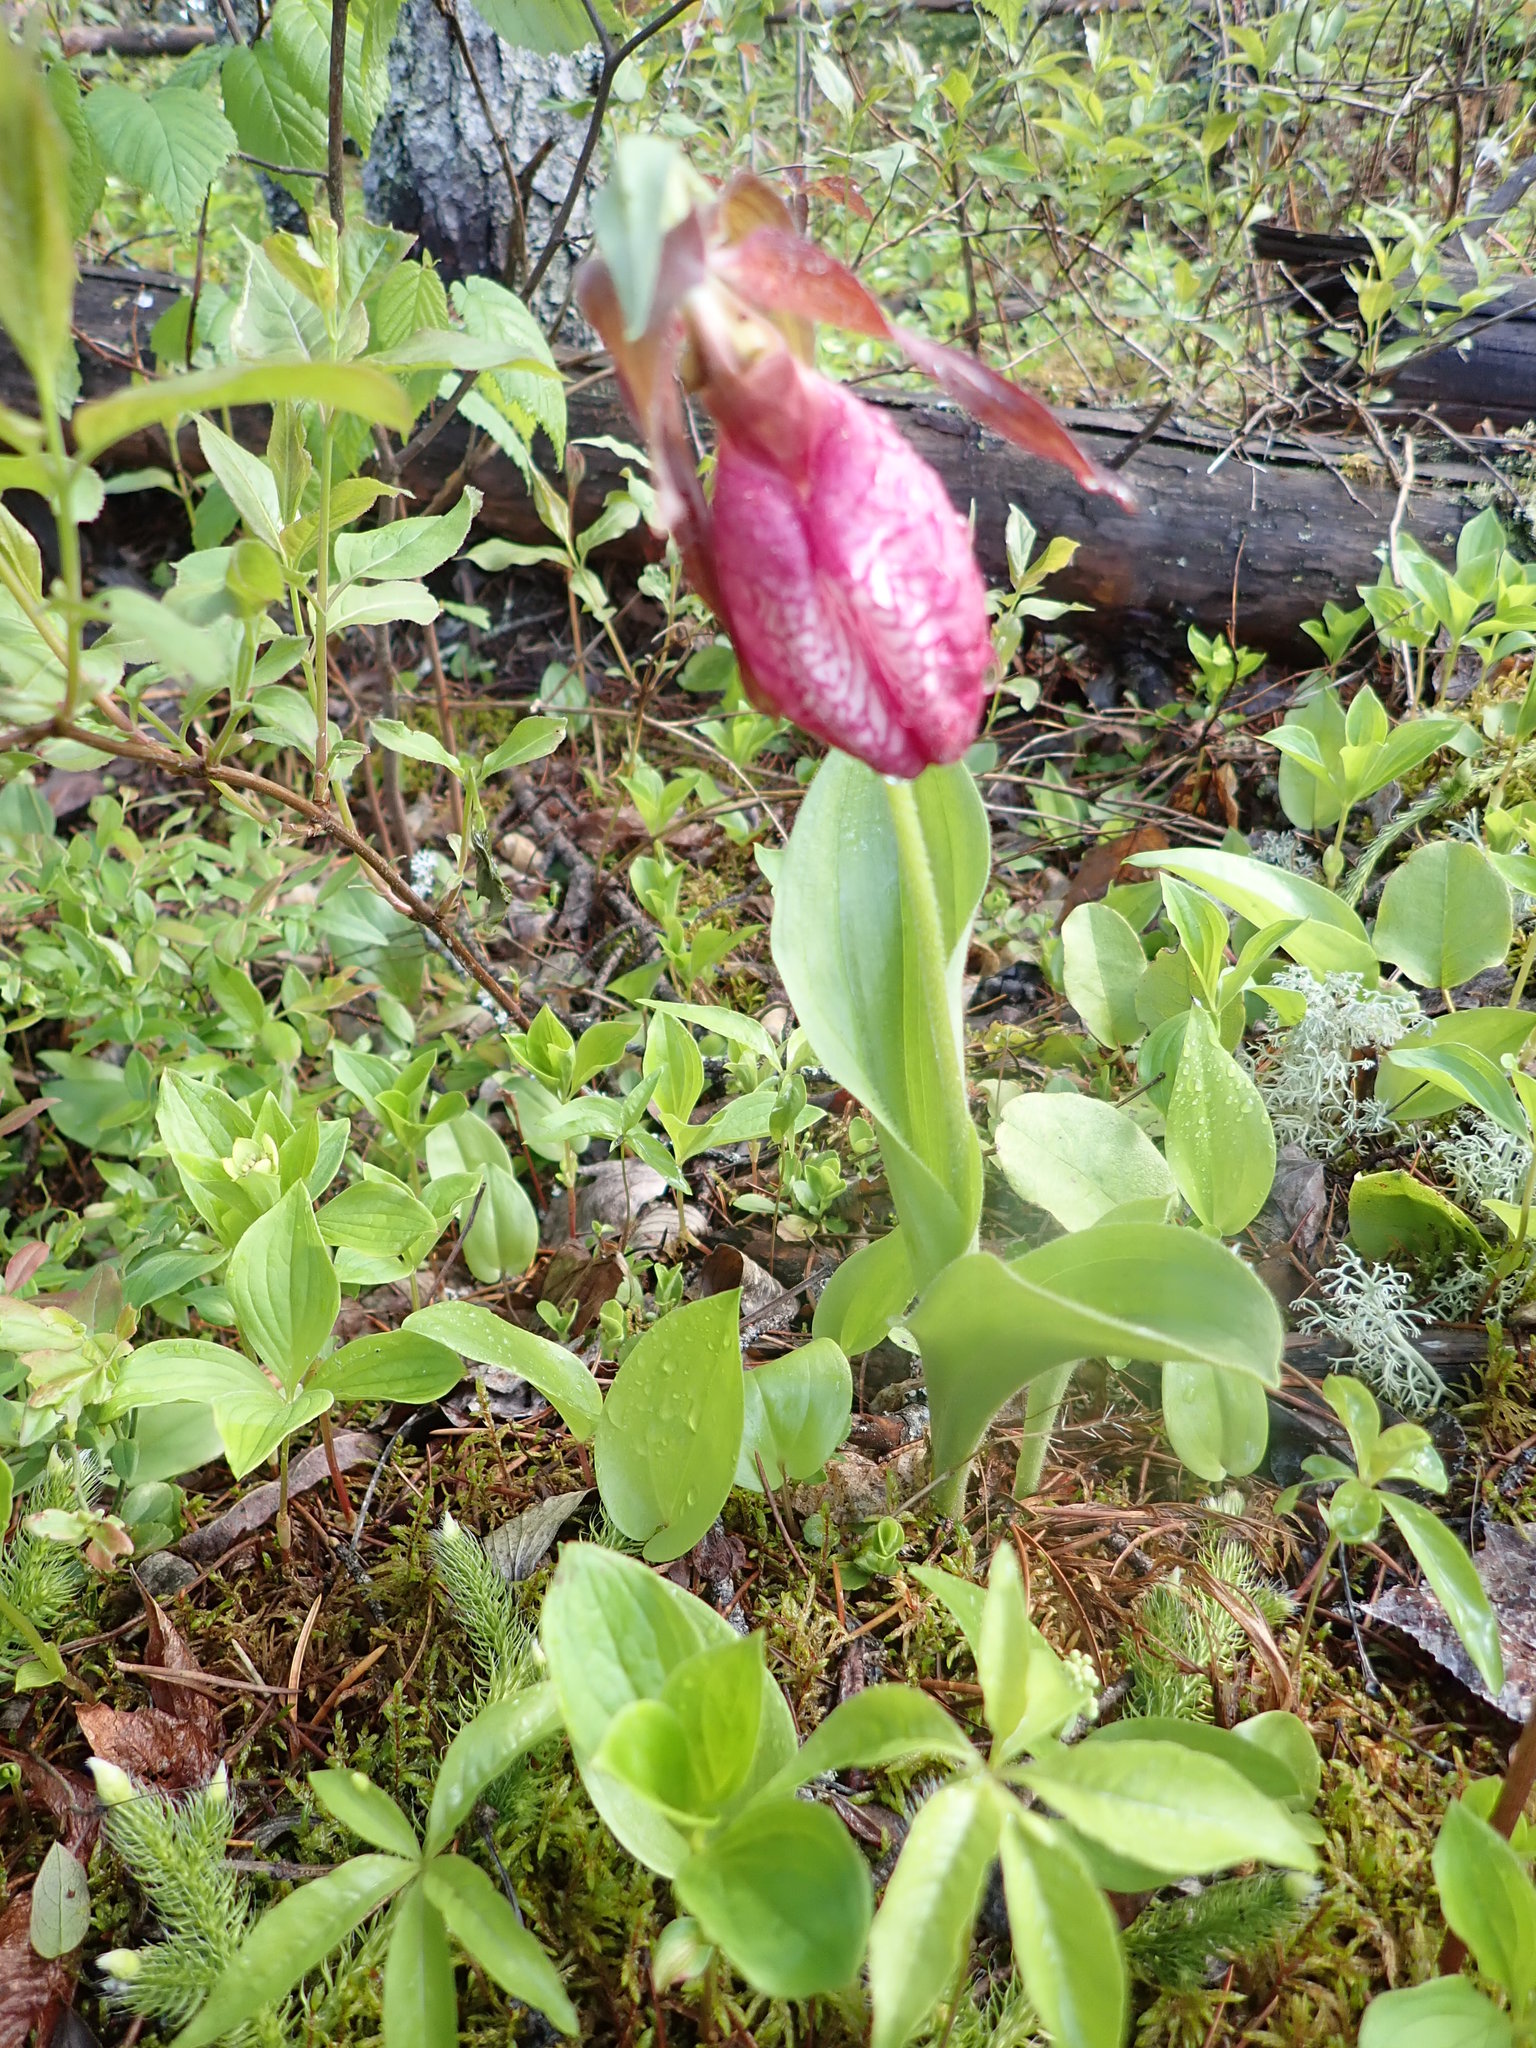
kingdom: Plantae
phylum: Tracheophyta
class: Liliopsida
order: Asparagales
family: Orchidaceae
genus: Cypripedium
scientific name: Cypripedium acaule
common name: Pink lady's-slipper
